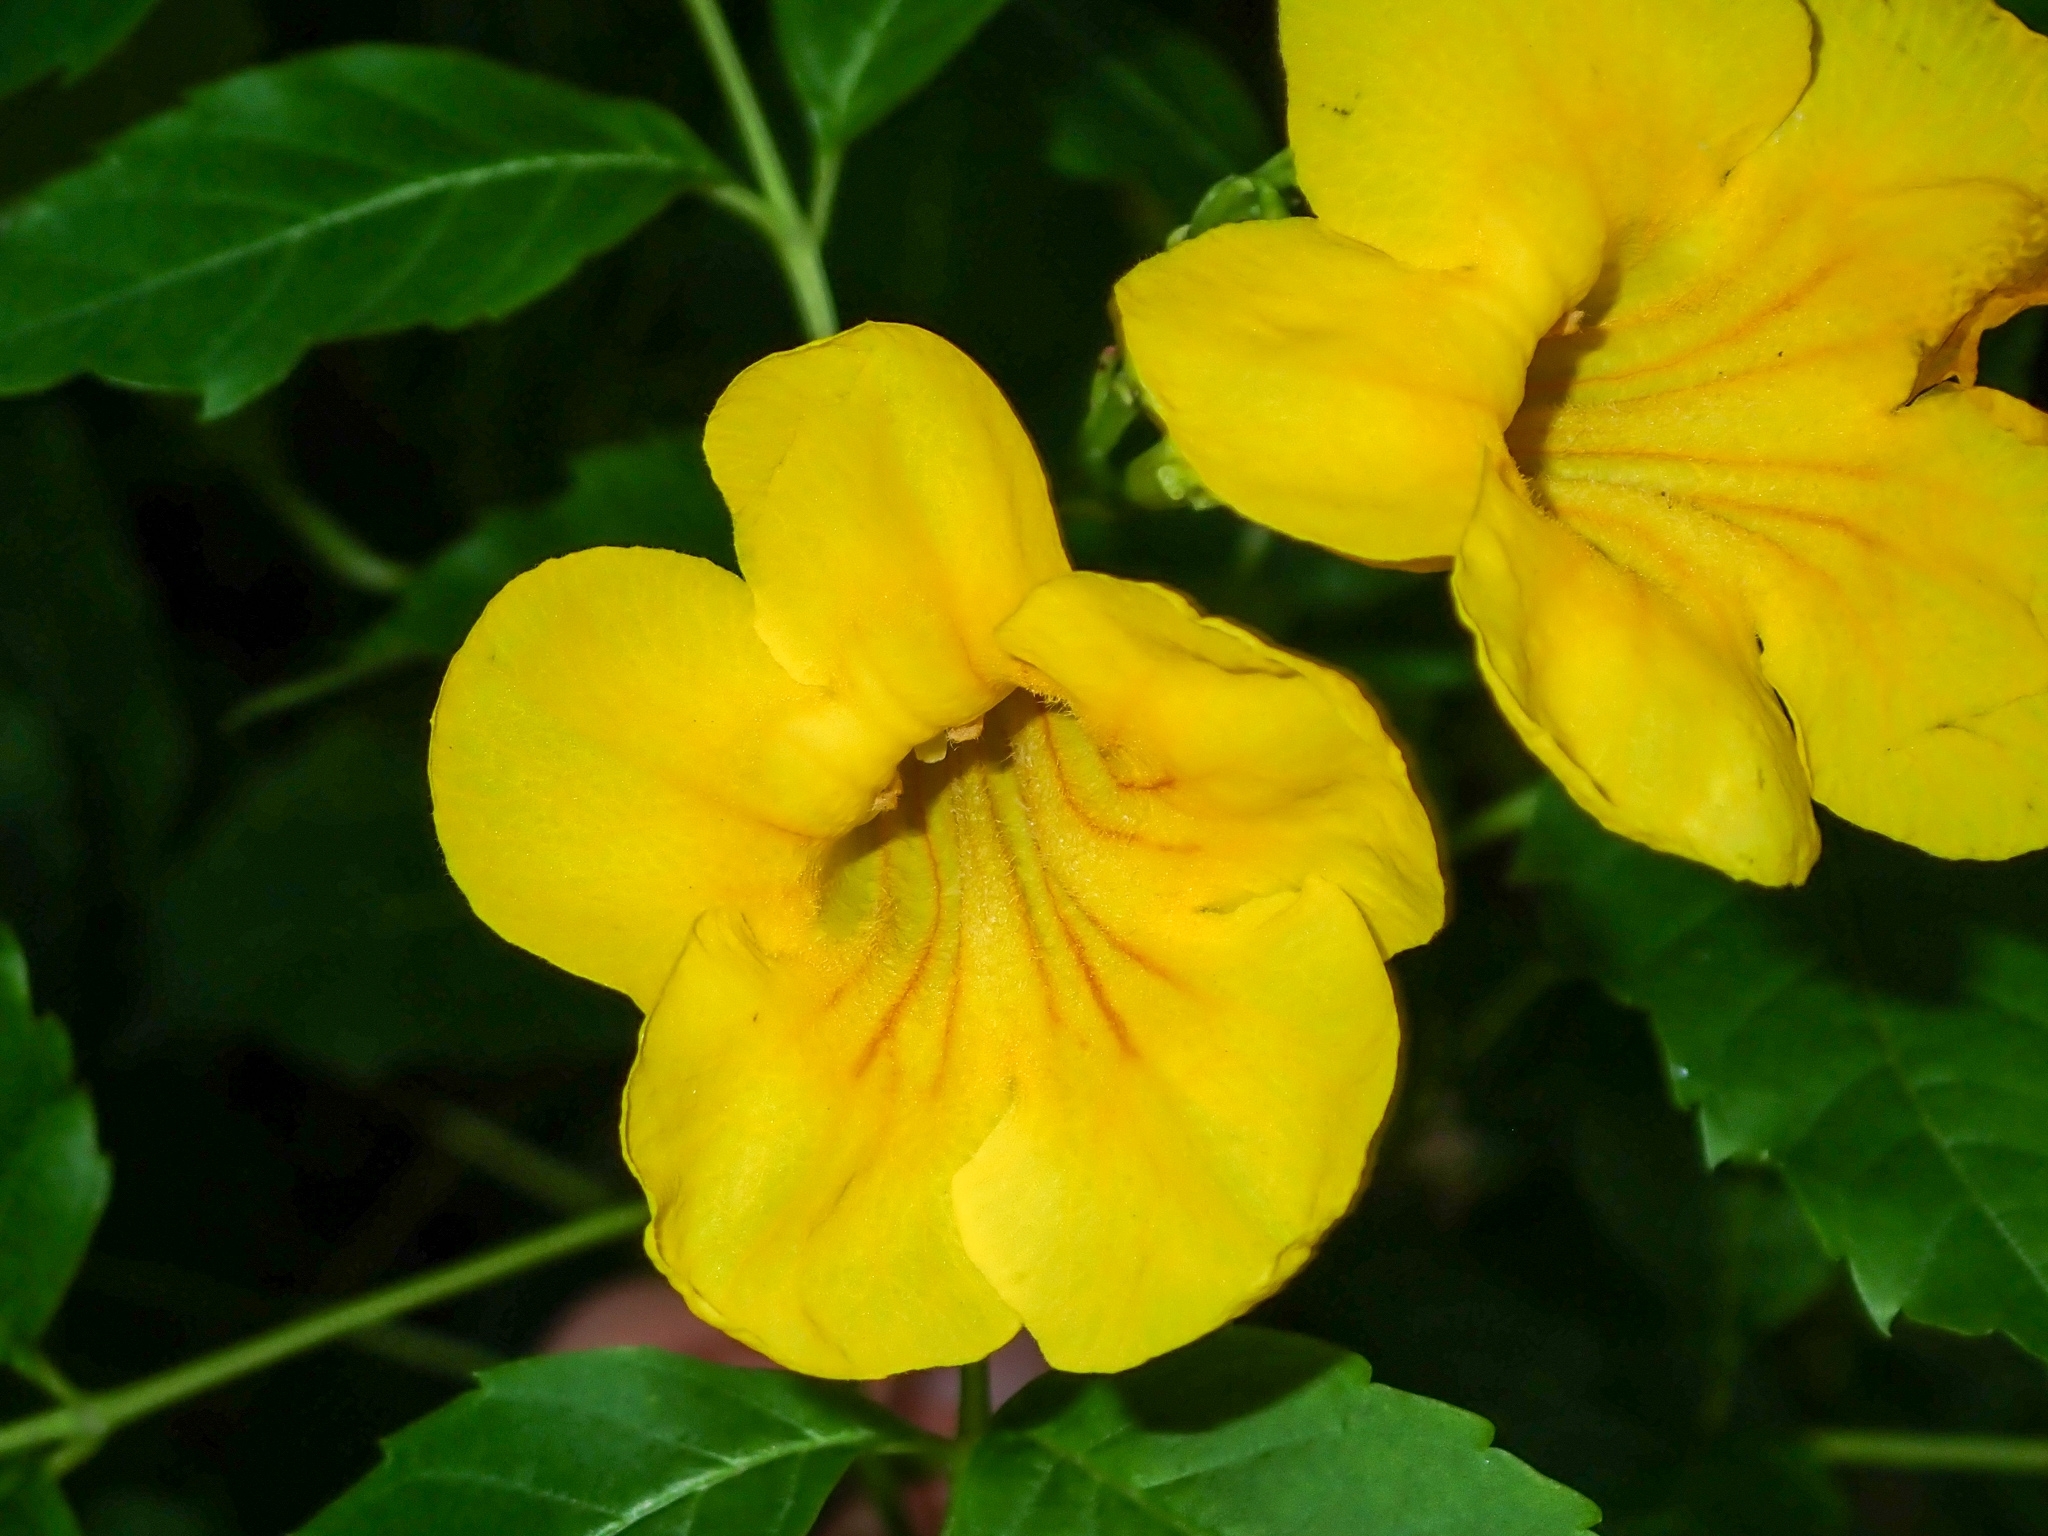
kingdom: Plantae
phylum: Tracheophyta
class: Magnoliopsida
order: Lamiales
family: Bignoniaceae
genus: Tecoma
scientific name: Tecoma stans
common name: Yellow trumpetbush
